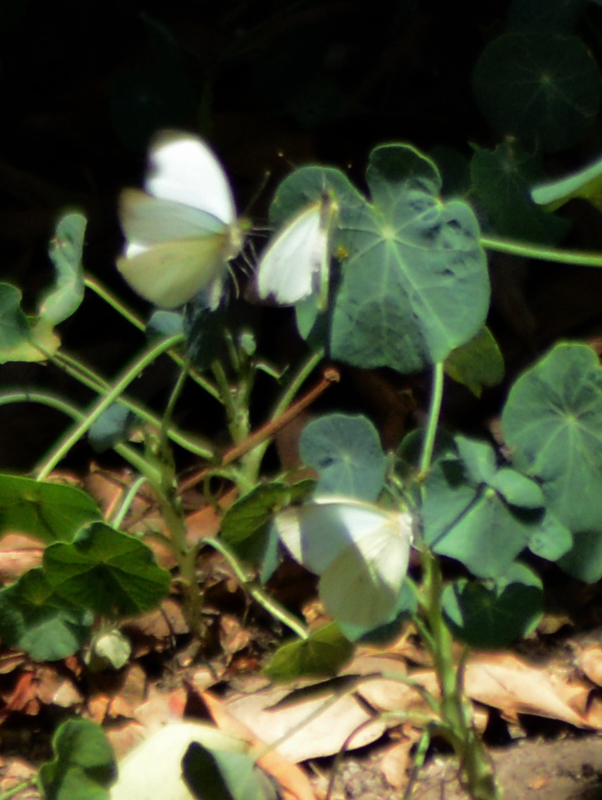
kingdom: Animalia
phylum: Arthropoda
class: Insecta
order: Lepidoptera
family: Pieridae
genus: Leptophobia
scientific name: Leptophobia aripa
